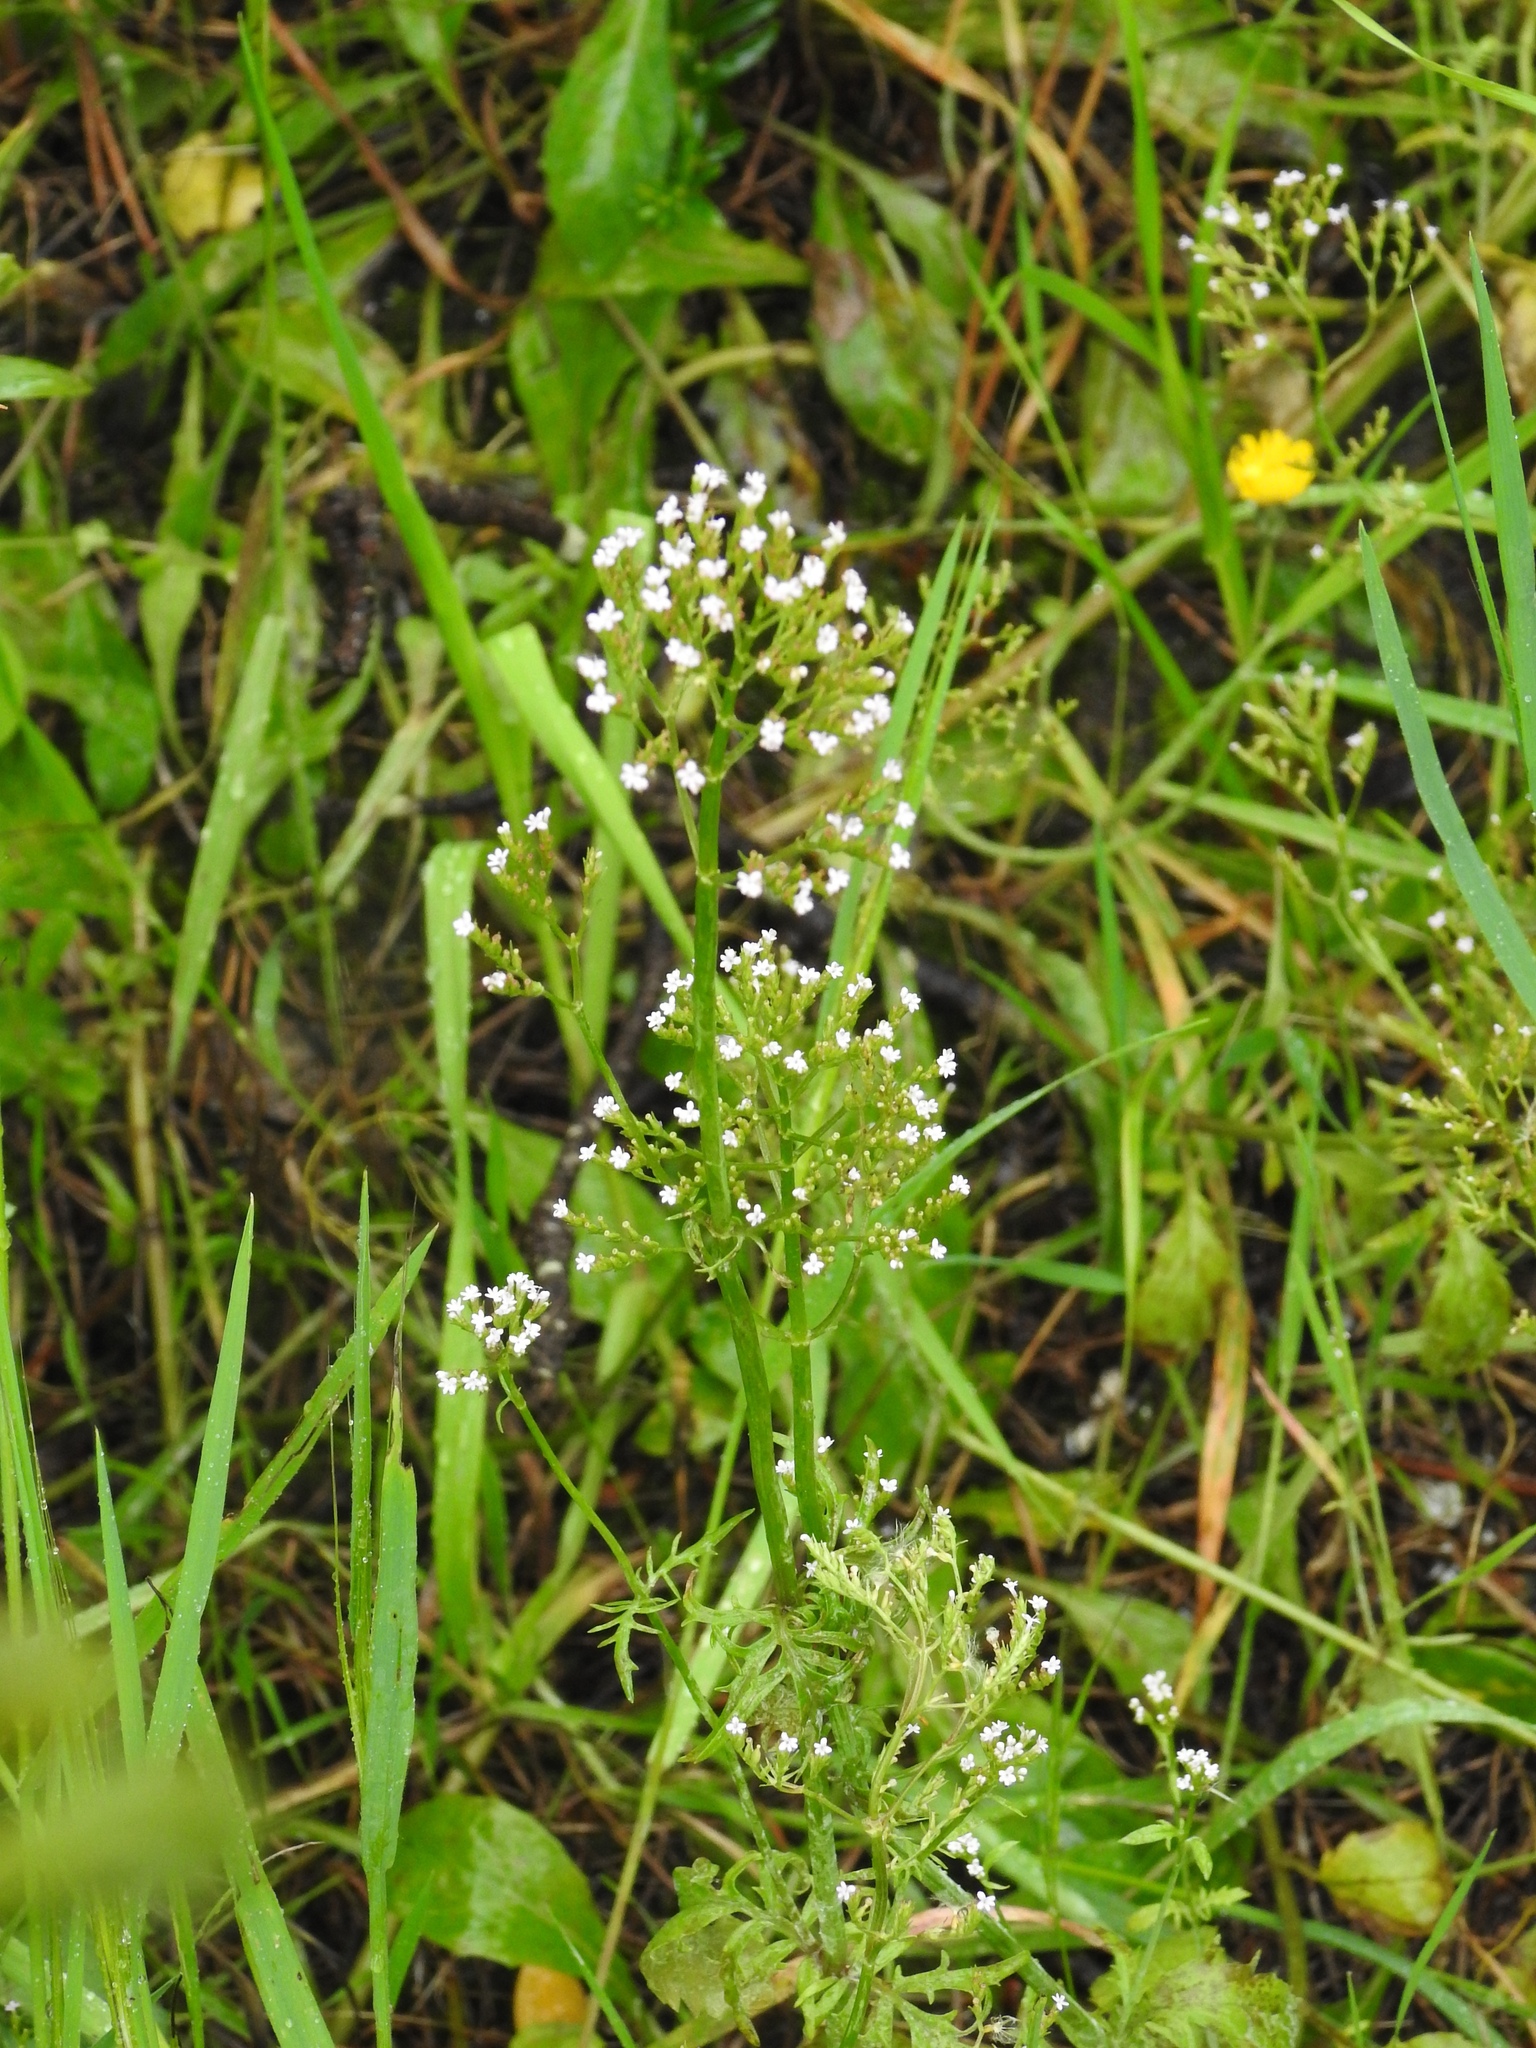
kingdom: Plantae
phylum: Tracheophyta
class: Magnoliopsida
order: Dipsacales
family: Caprifoliaceae
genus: Centranthus
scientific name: Centranthus calcitrapae
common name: Annual valerian
